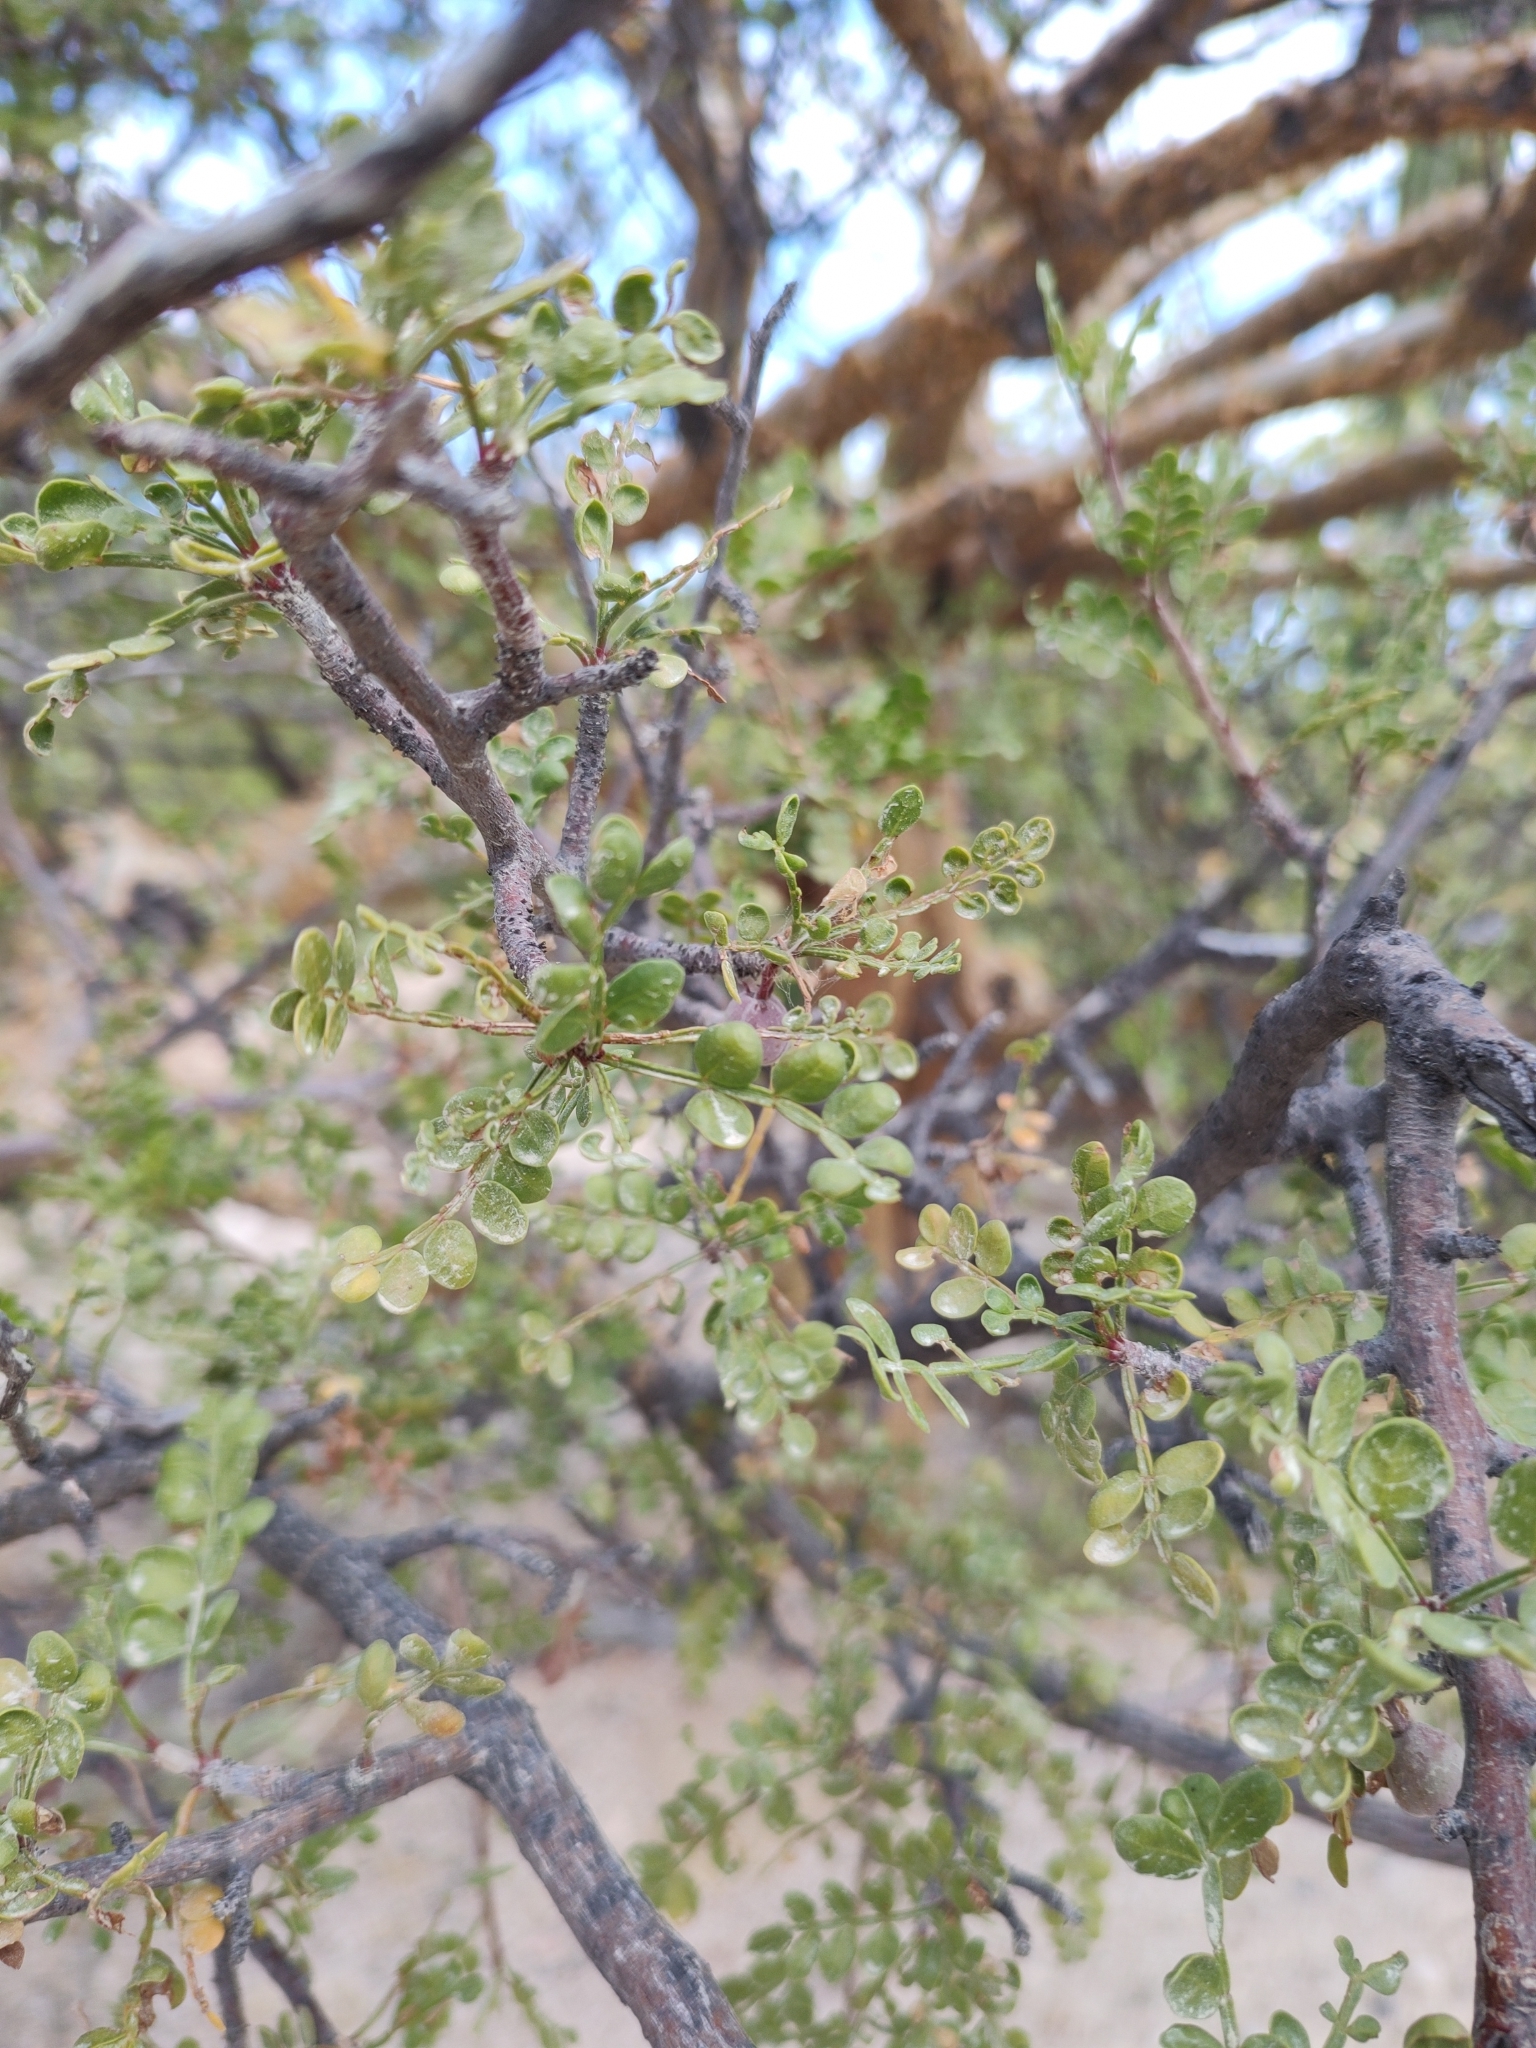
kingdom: Plantae
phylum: Tracheophyta
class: Magnoliopsida
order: Sapindales
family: Burseraceae
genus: Bursera
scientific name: Bursera exequielii
